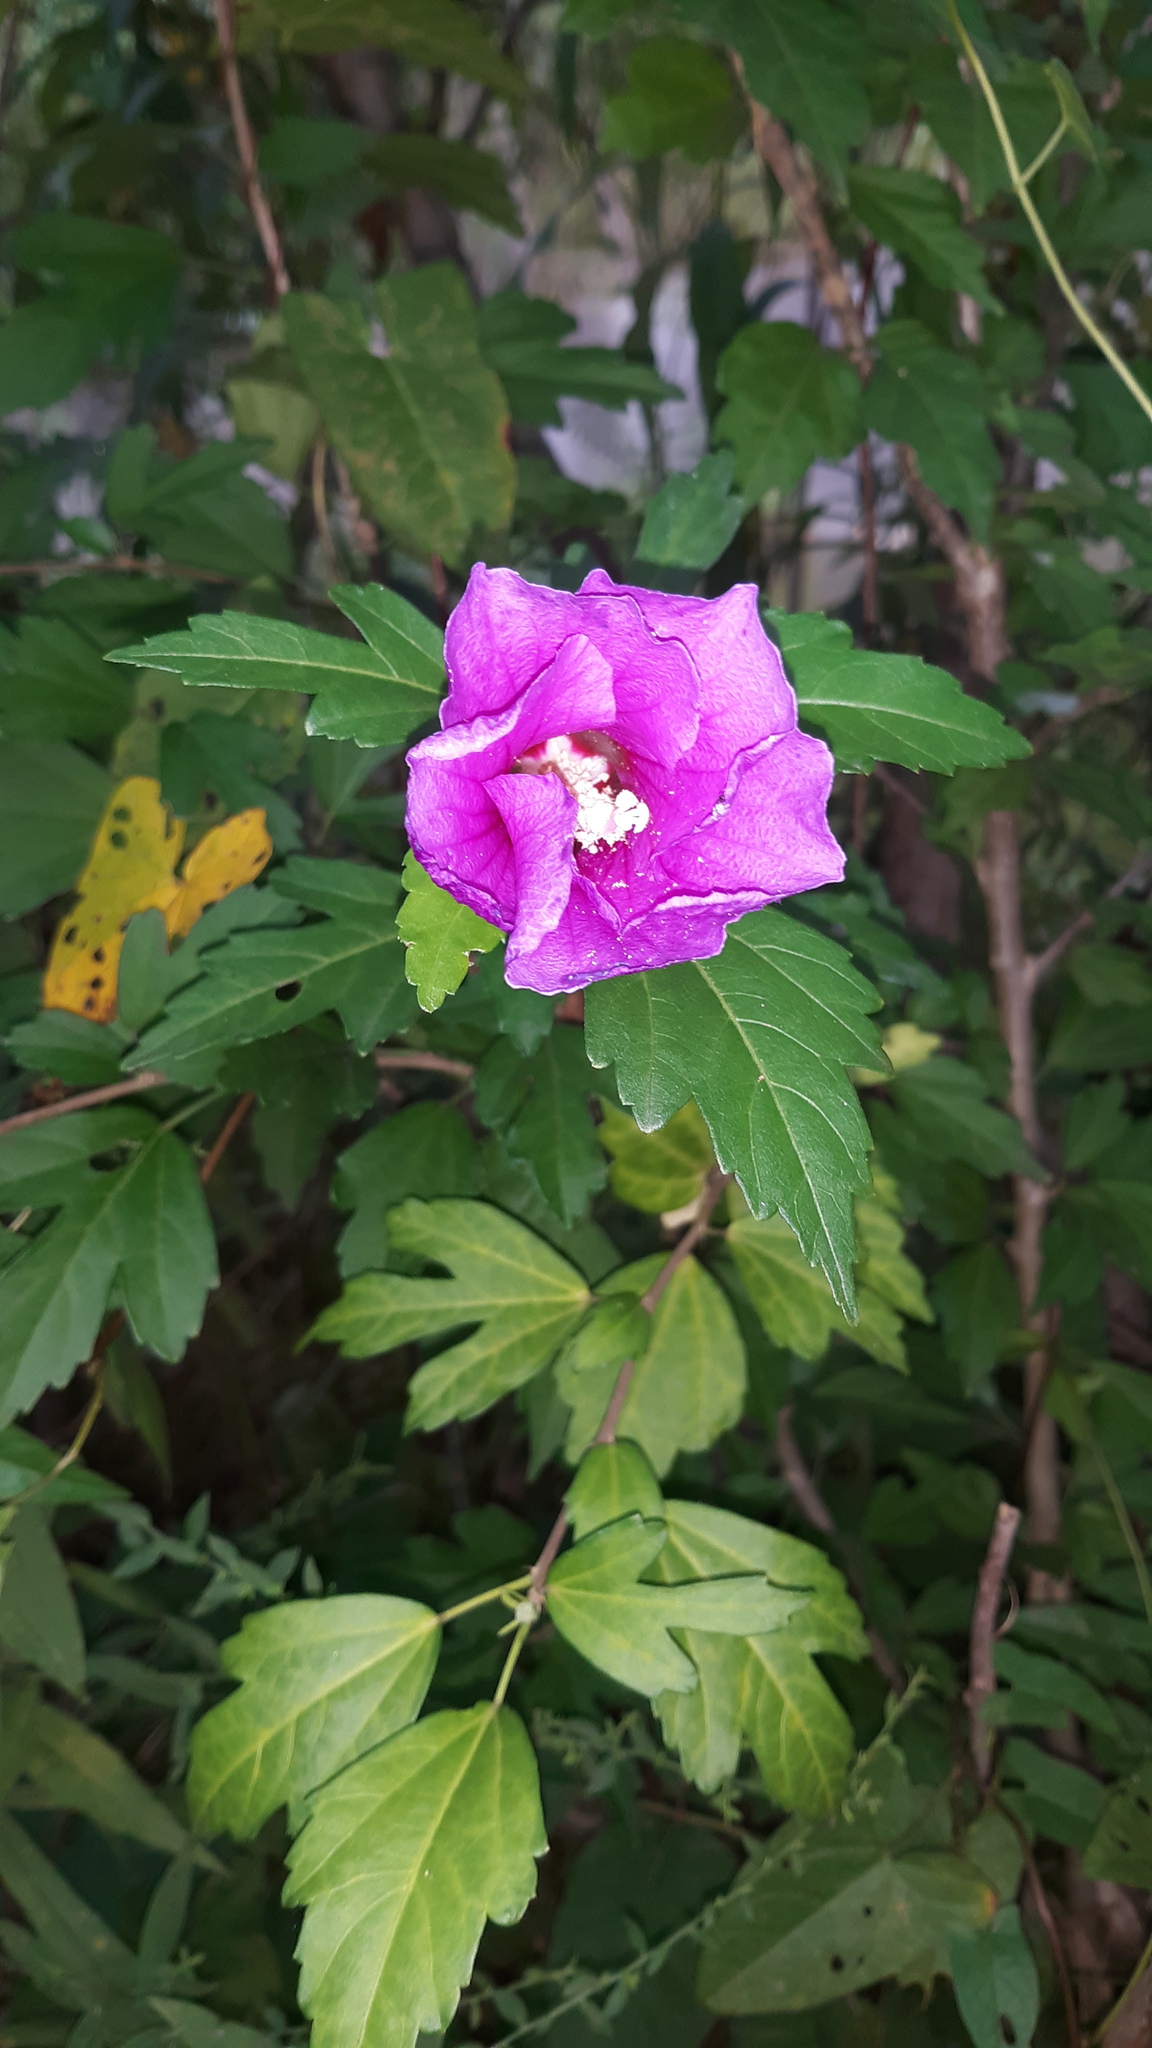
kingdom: Plantae
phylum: Tracheophyta
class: Magnoliopsida
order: Malvales
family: Malvaceae
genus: Hibiscus
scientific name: Hibiscus syriacus
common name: Syrian ketmia
